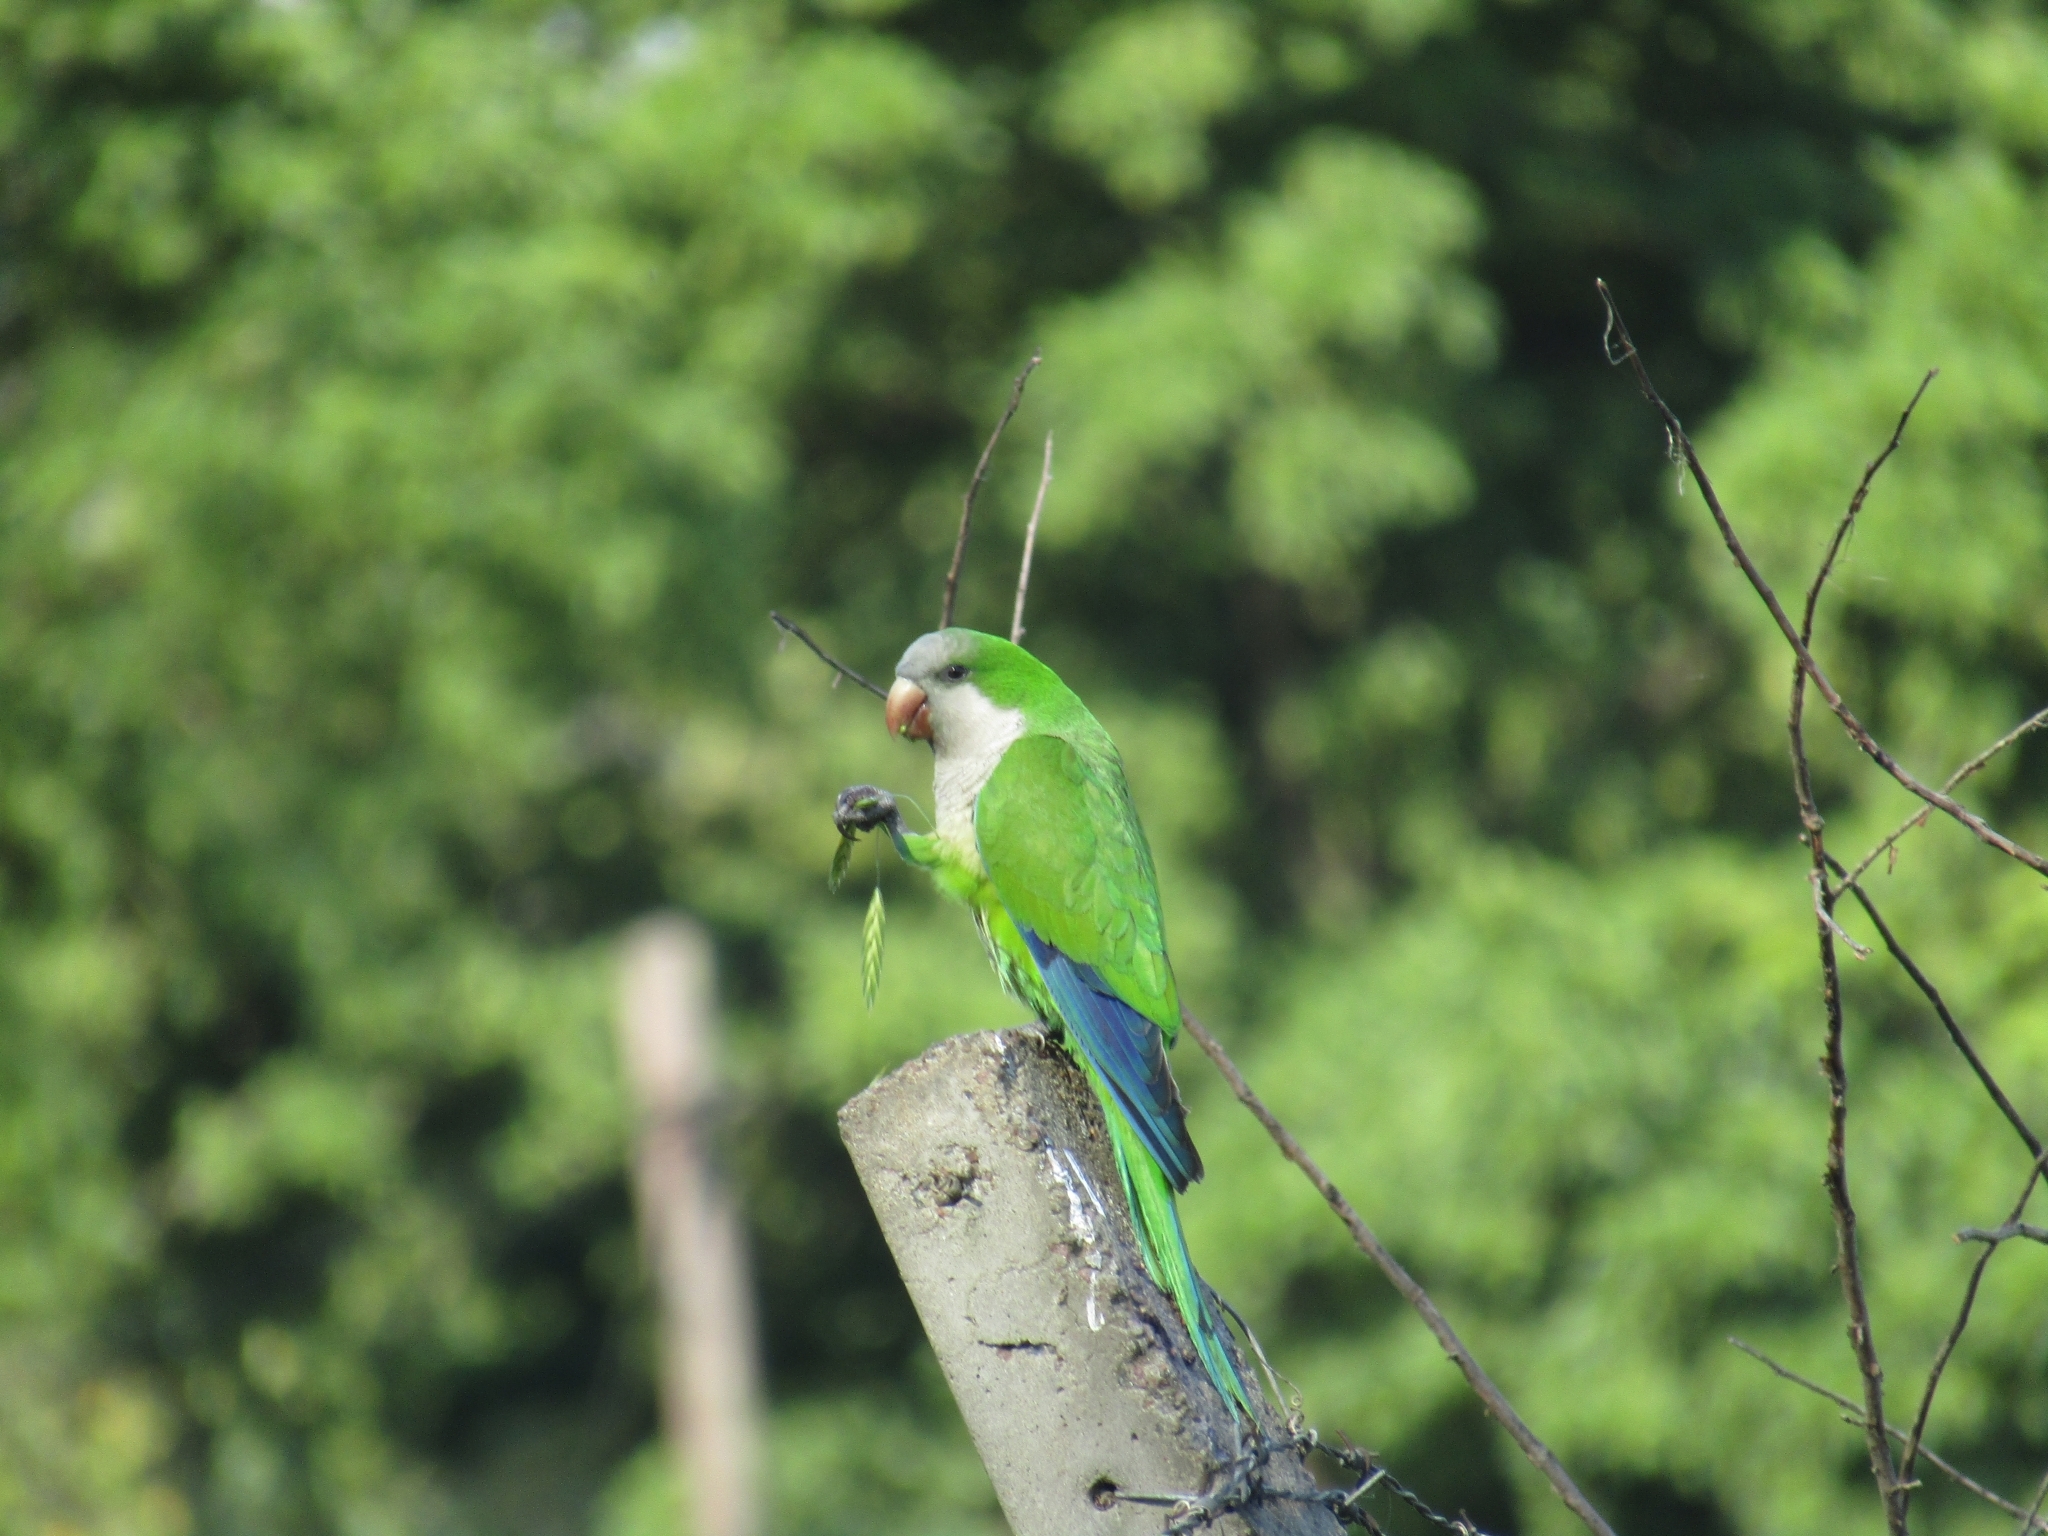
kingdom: Animalia
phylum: Chordata
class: Aves
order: Psittaciformes
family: Psittacidae
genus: Myiopsitta
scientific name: Myiopsitta monachus
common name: Monk parakeet
